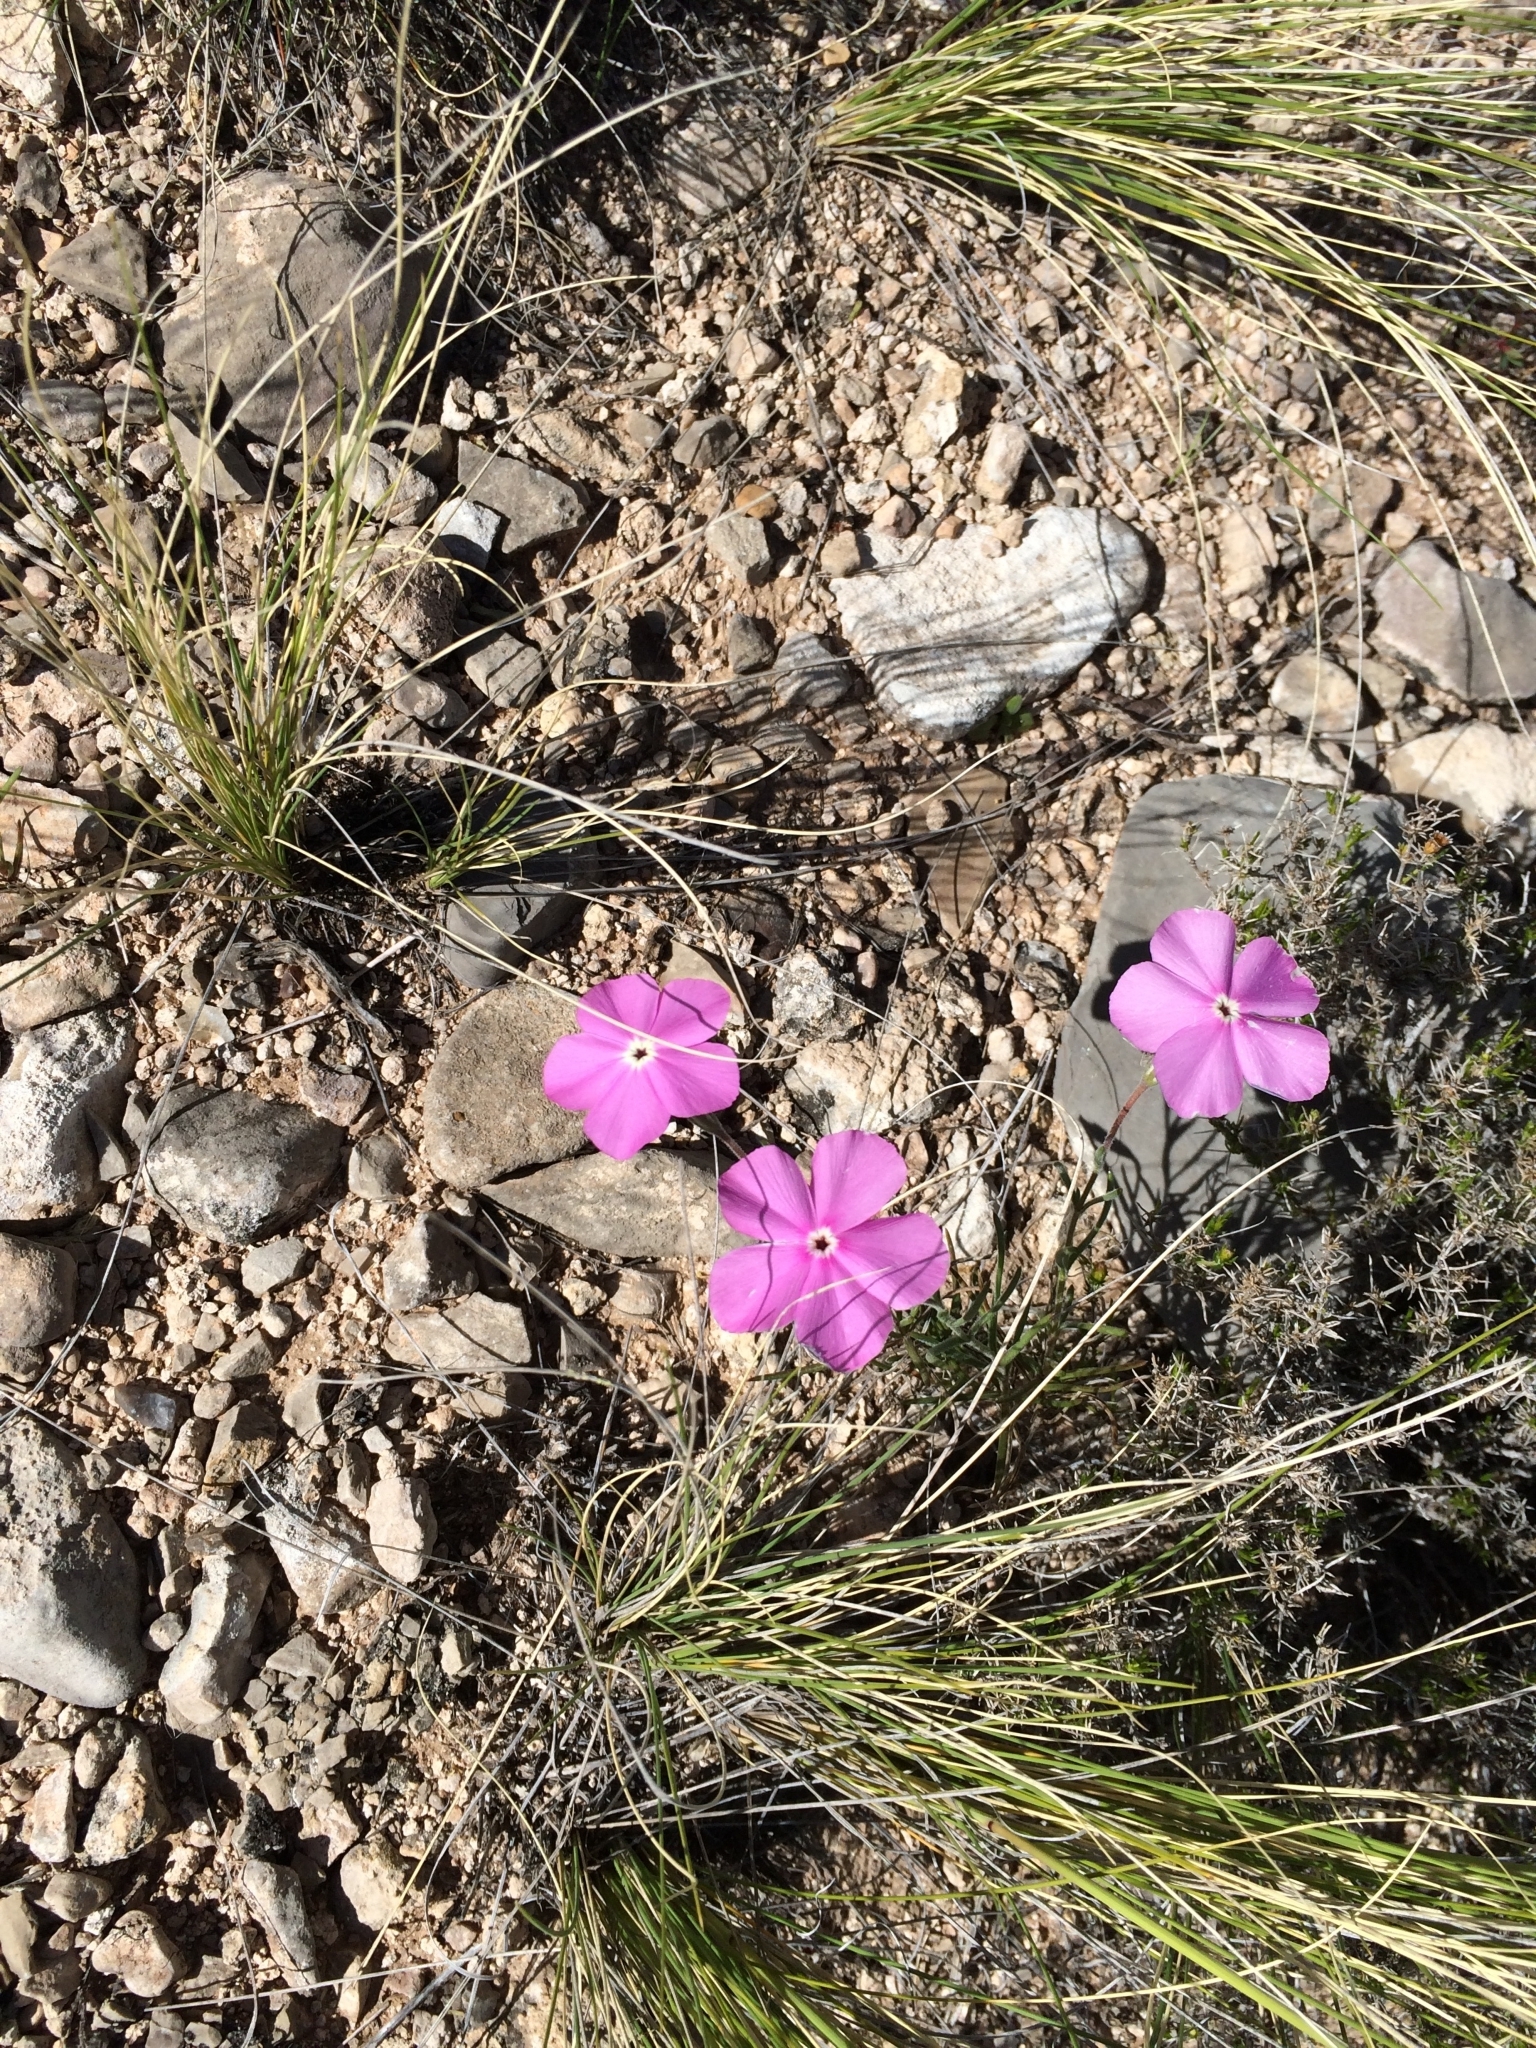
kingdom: Plantae
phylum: Tracheophyta
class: Magnoliopsida
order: Ericales
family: Polemoniaceae
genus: Phlox
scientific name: Phlox nana
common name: Santa fe phlox
